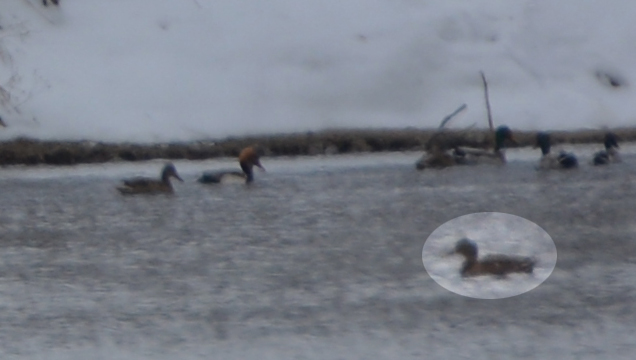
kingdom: Animalia
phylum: Chordata
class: Aves
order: Anseriformes
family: Anatidae
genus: Anas
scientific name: Anas platyrhynchos
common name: Mallard
